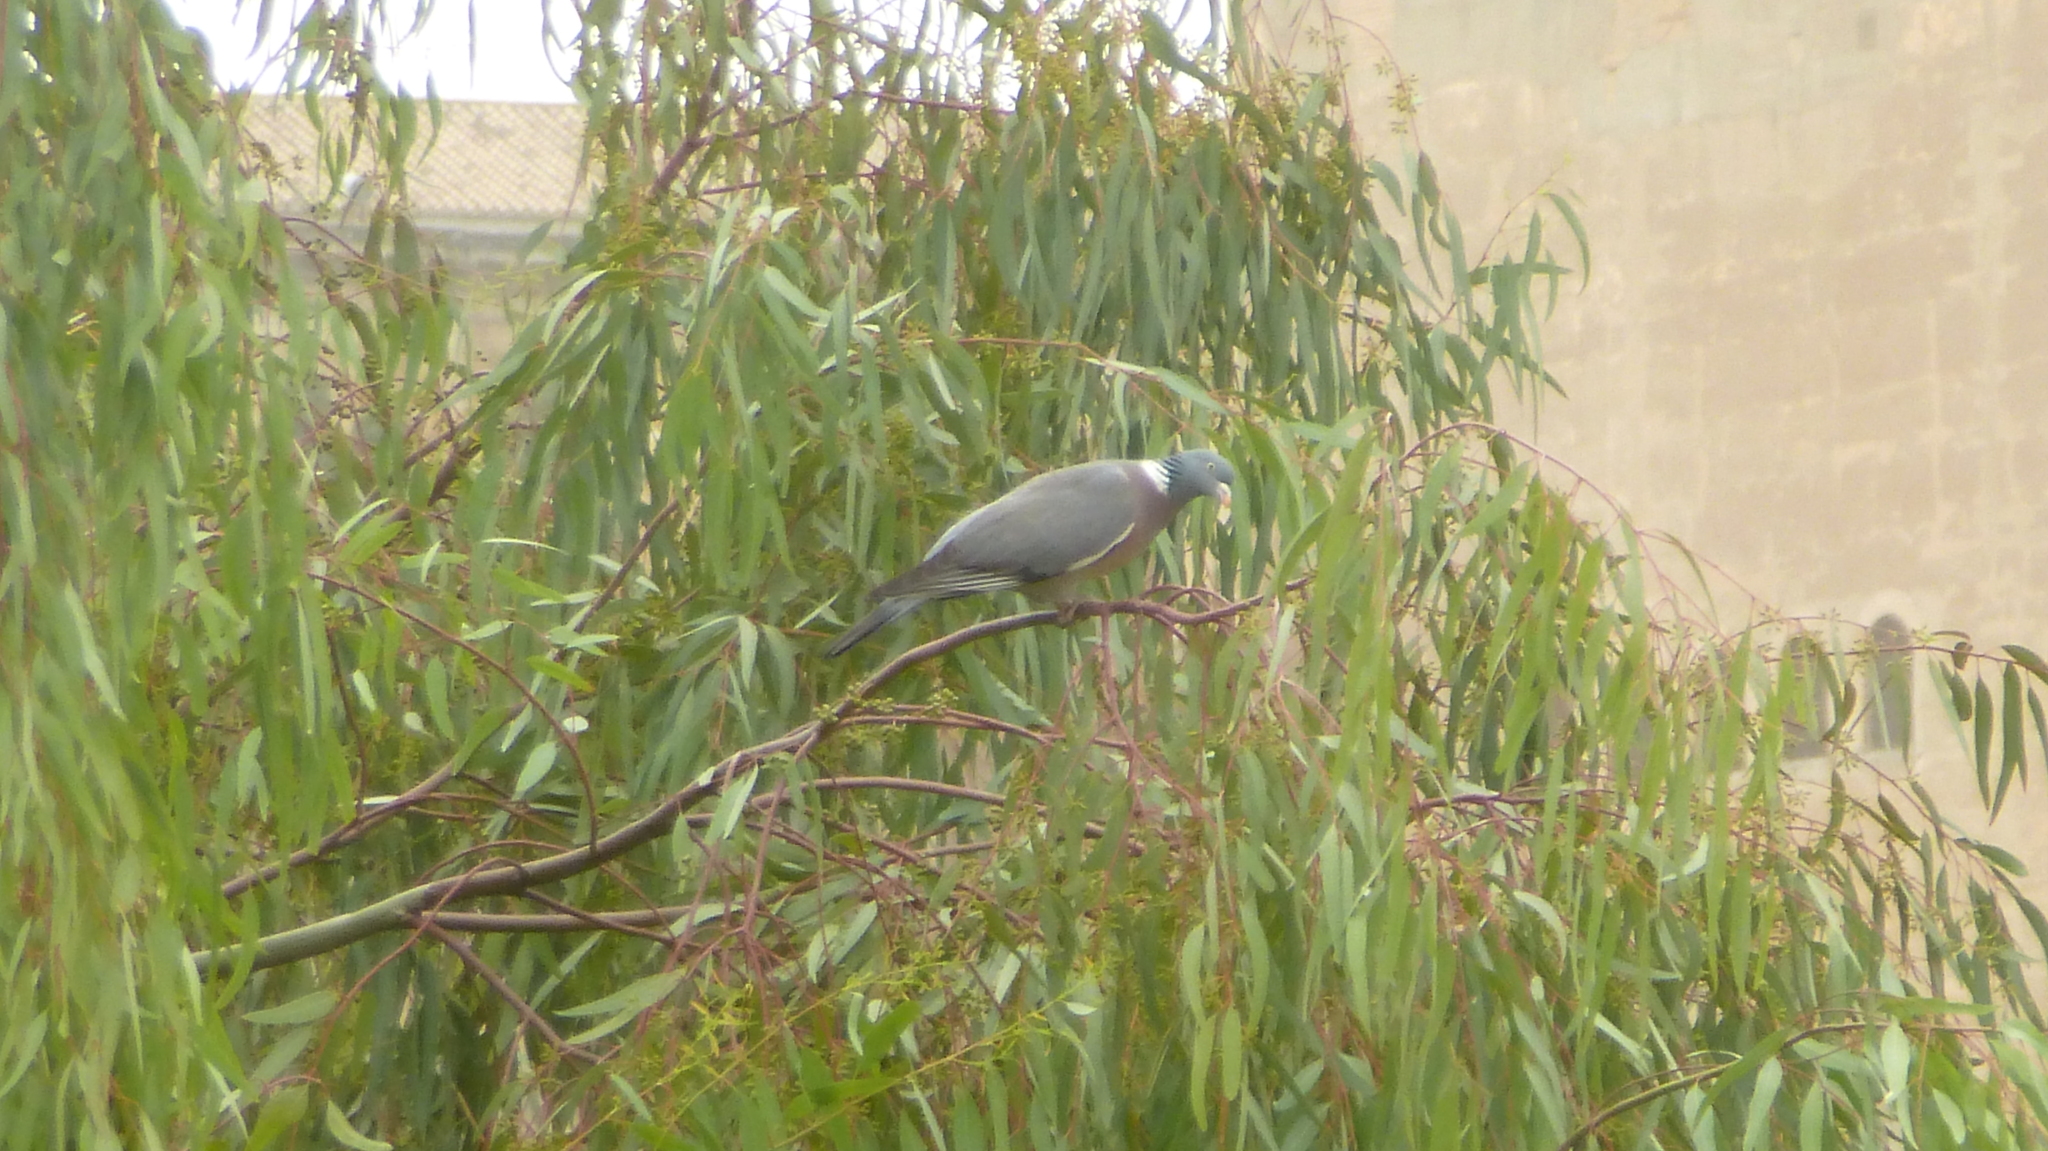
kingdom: Animalia
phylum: Chordata
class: Aves
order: Columbiformes
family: Columbidae
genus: Columba
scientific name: Columba palumbus
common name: Common wood pigeon
